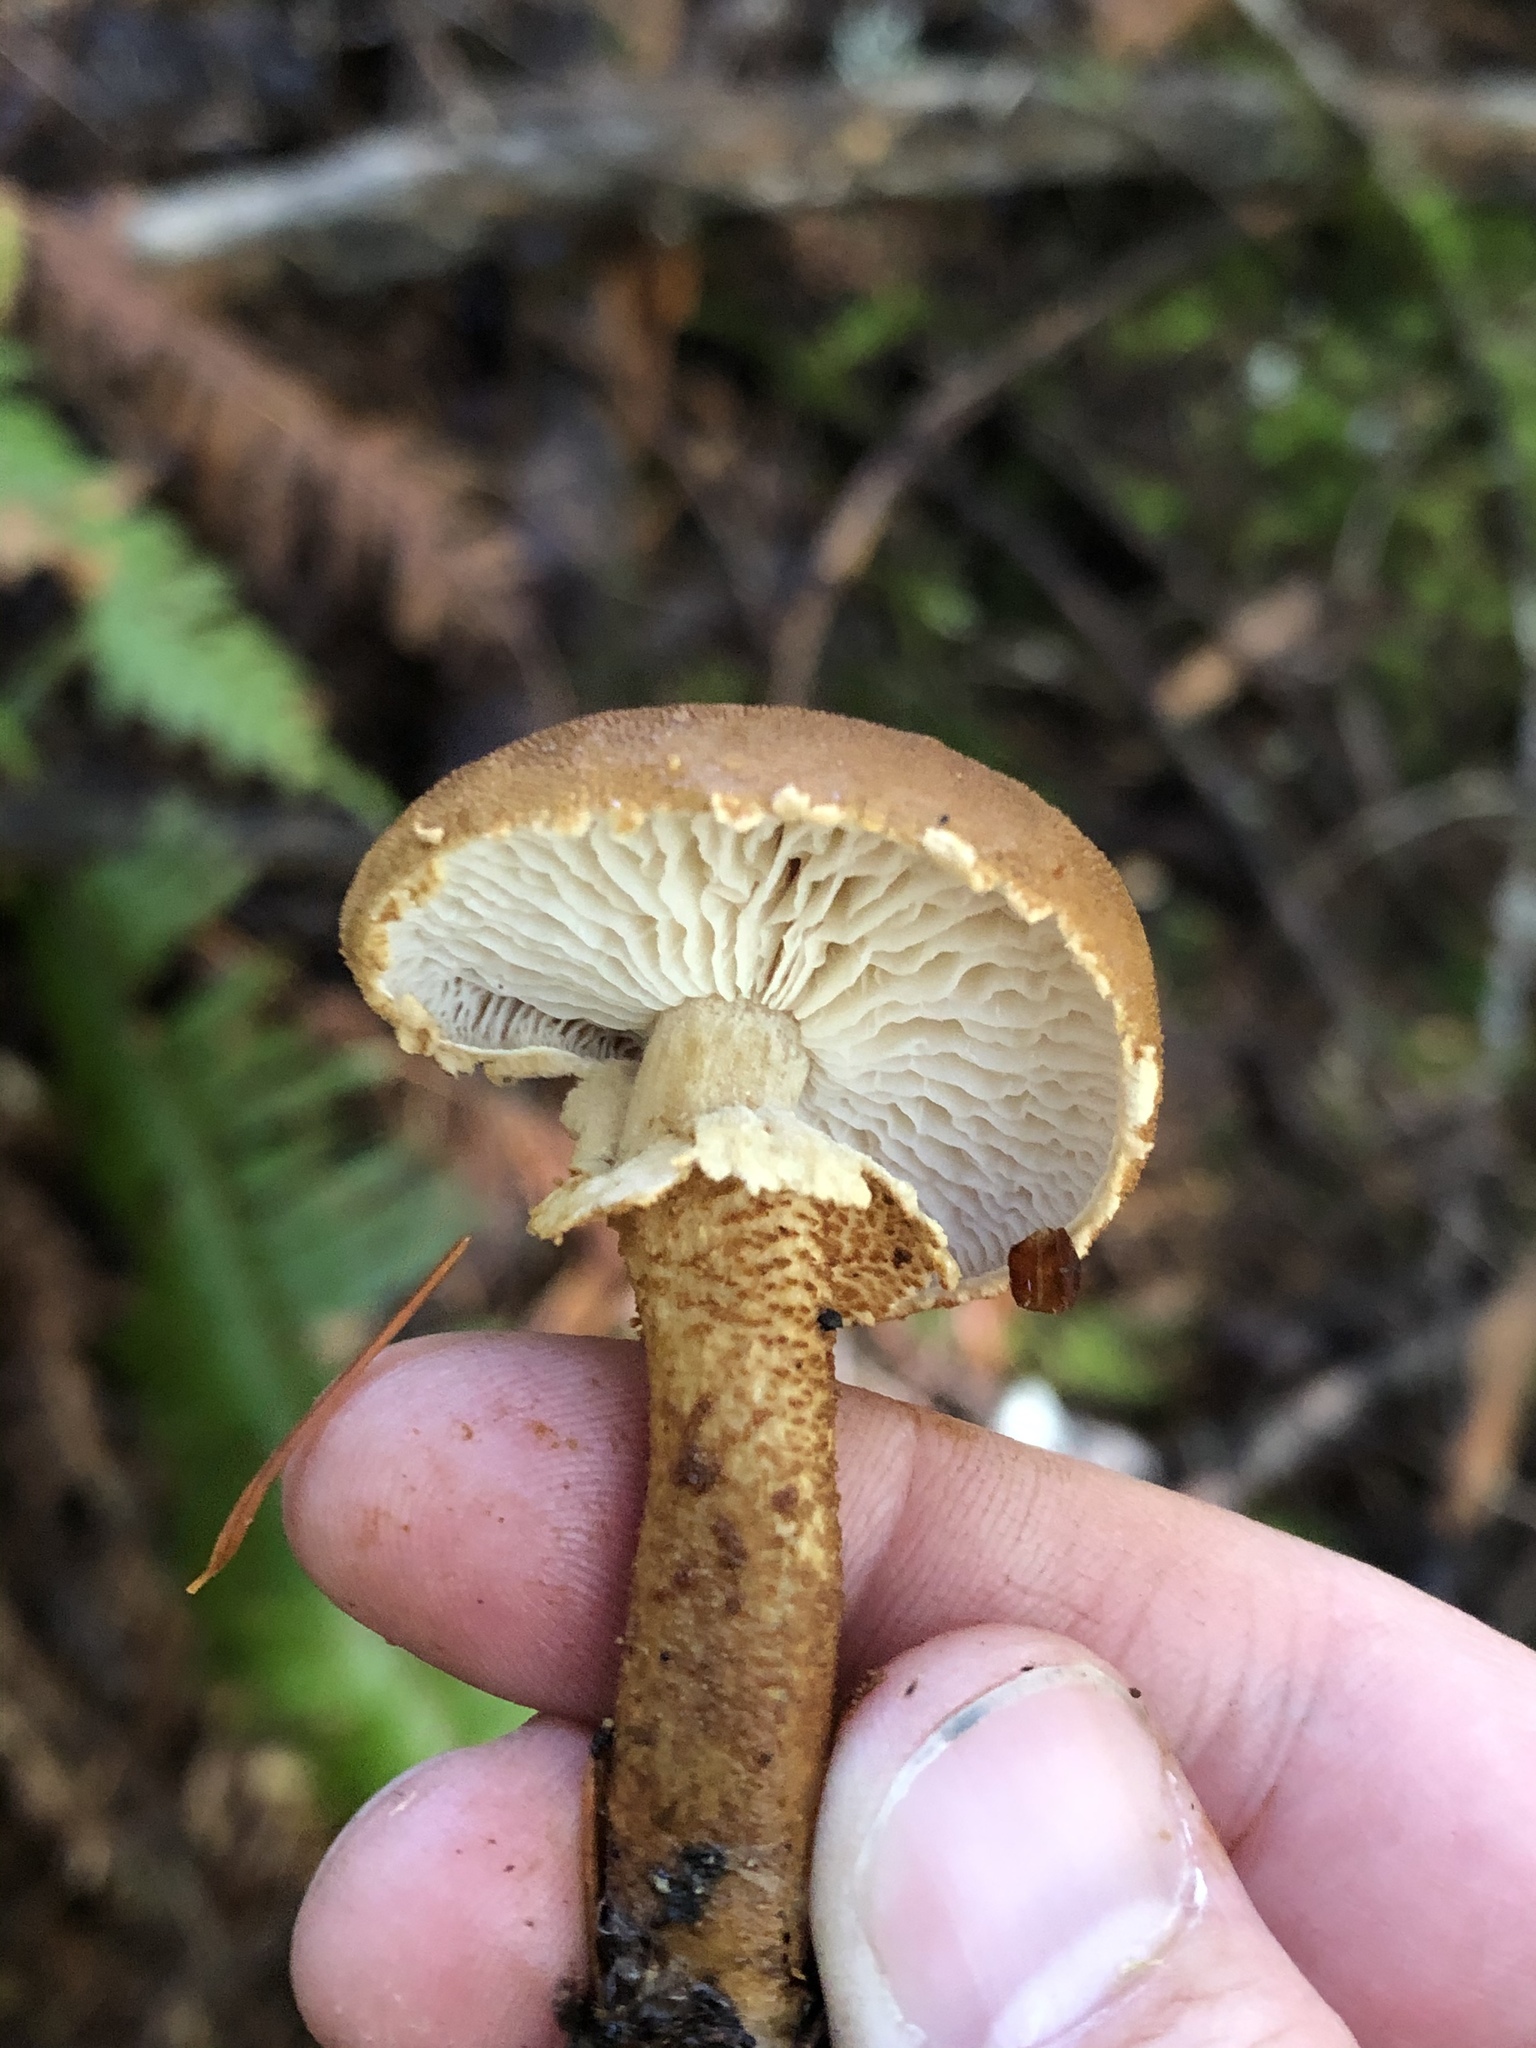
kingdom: Fungi
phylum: Basidiomycota
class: Agaricomycetes
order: Agaricales
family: Tricholomataceae
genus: Cystoderma
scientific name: Cystoderma fallax
